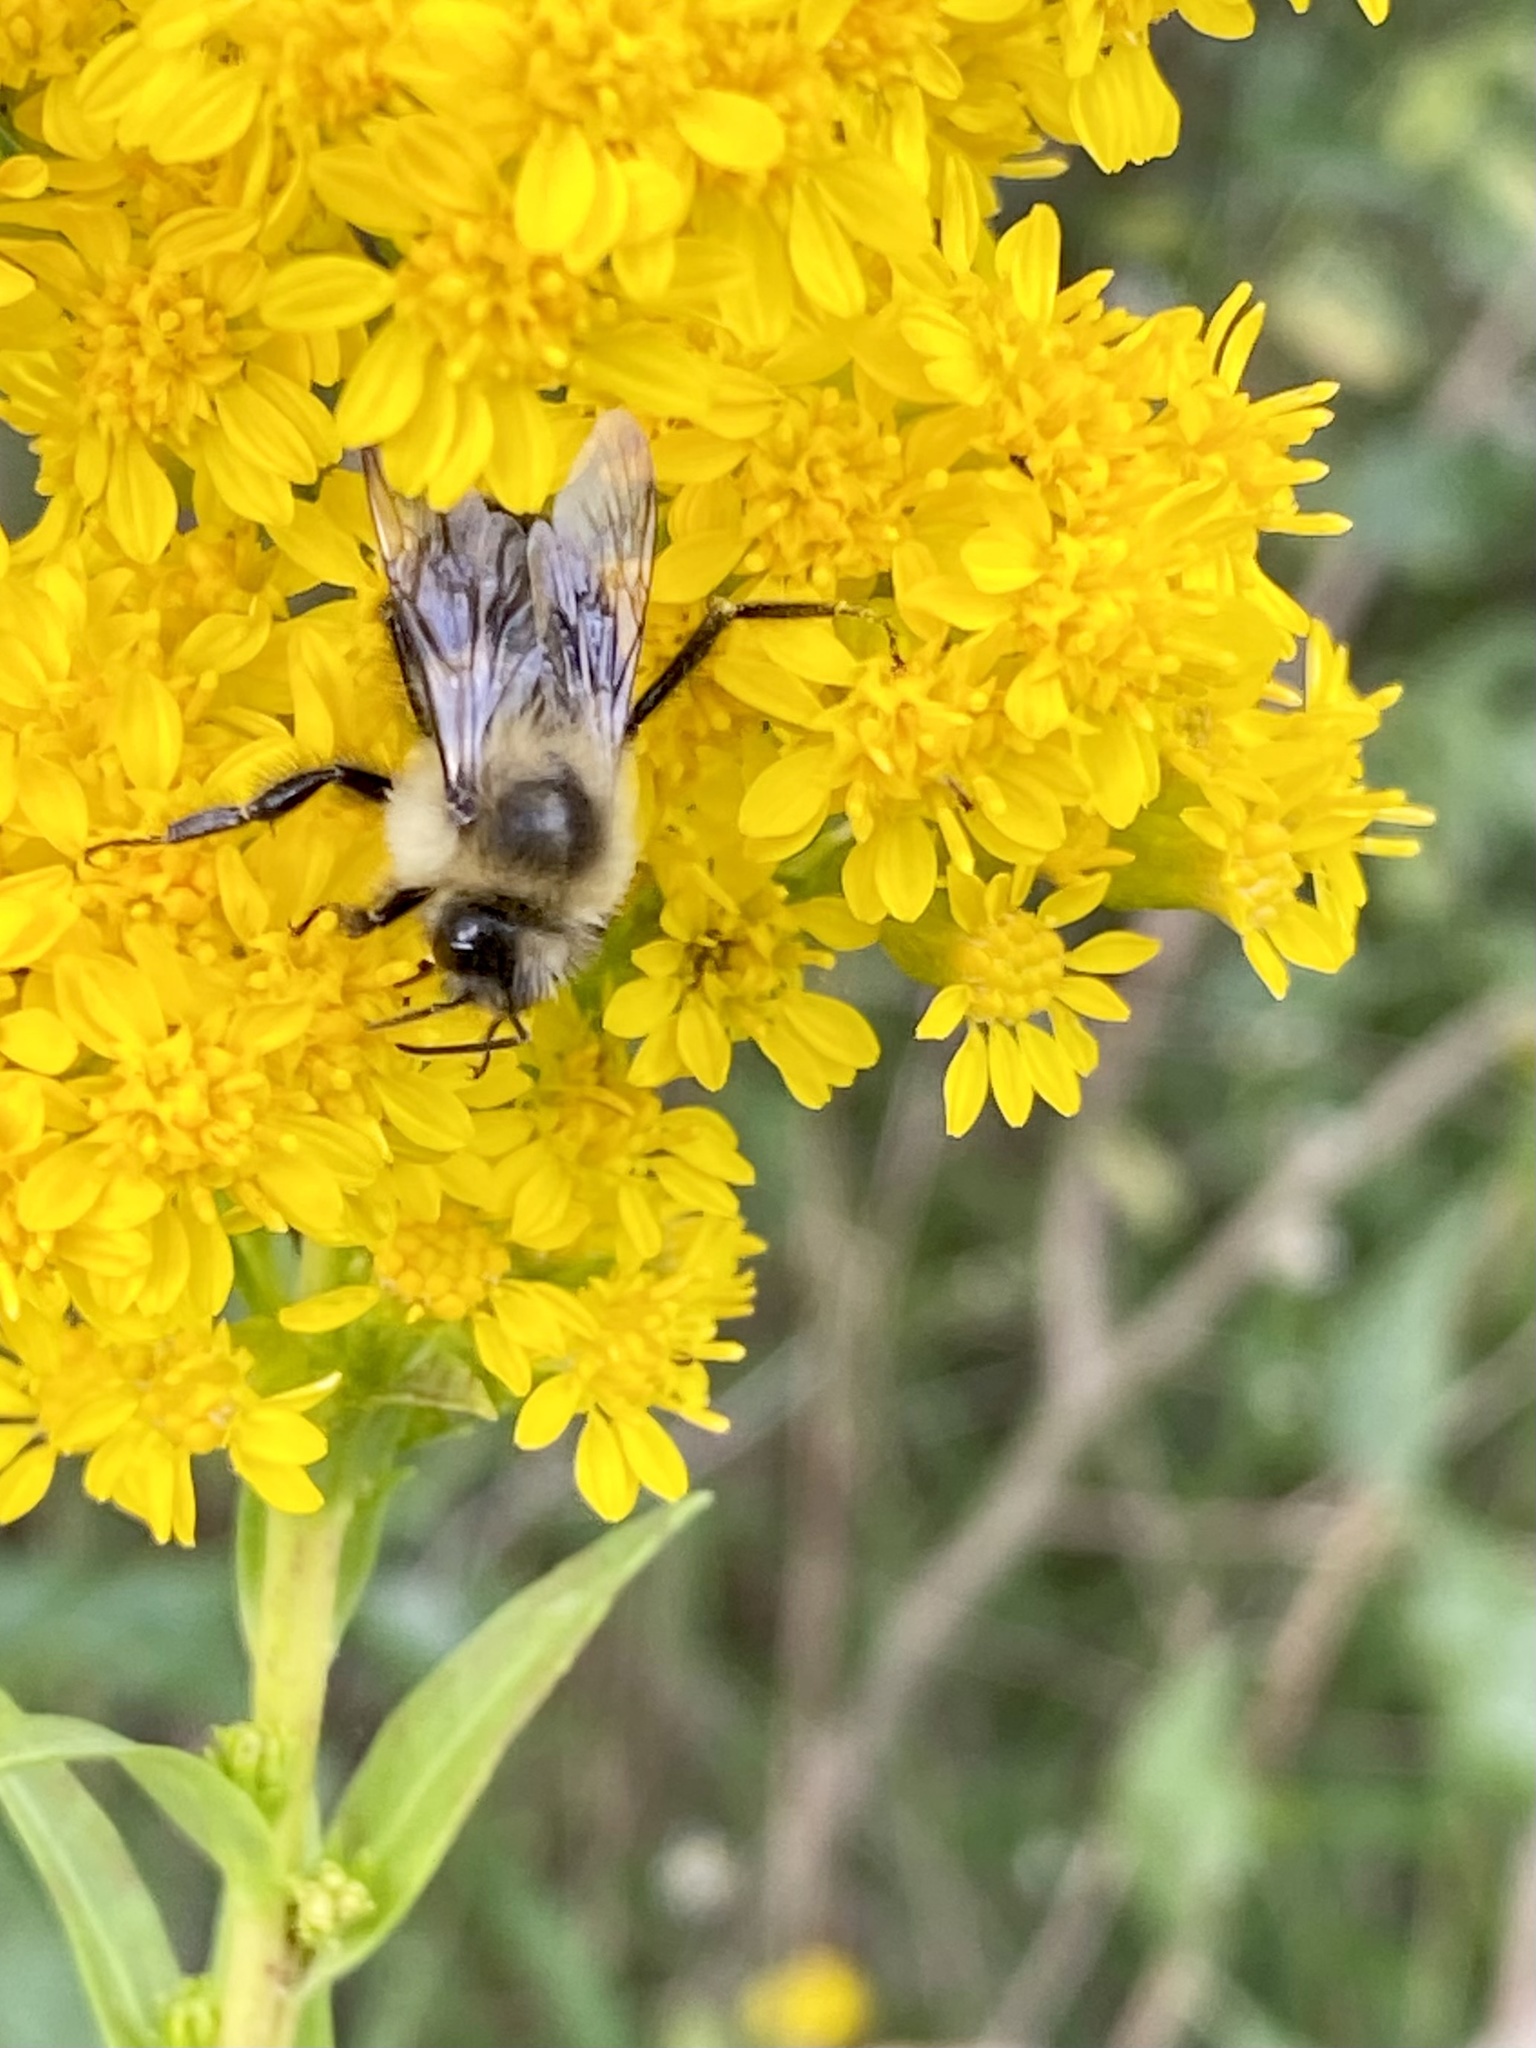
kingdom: Animalia
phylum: Arthropoda
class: Insecta
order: Hymenoptera
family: Apidae
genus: Bombus
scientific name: Bombus impatiens
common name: Common eastern bumble bee
